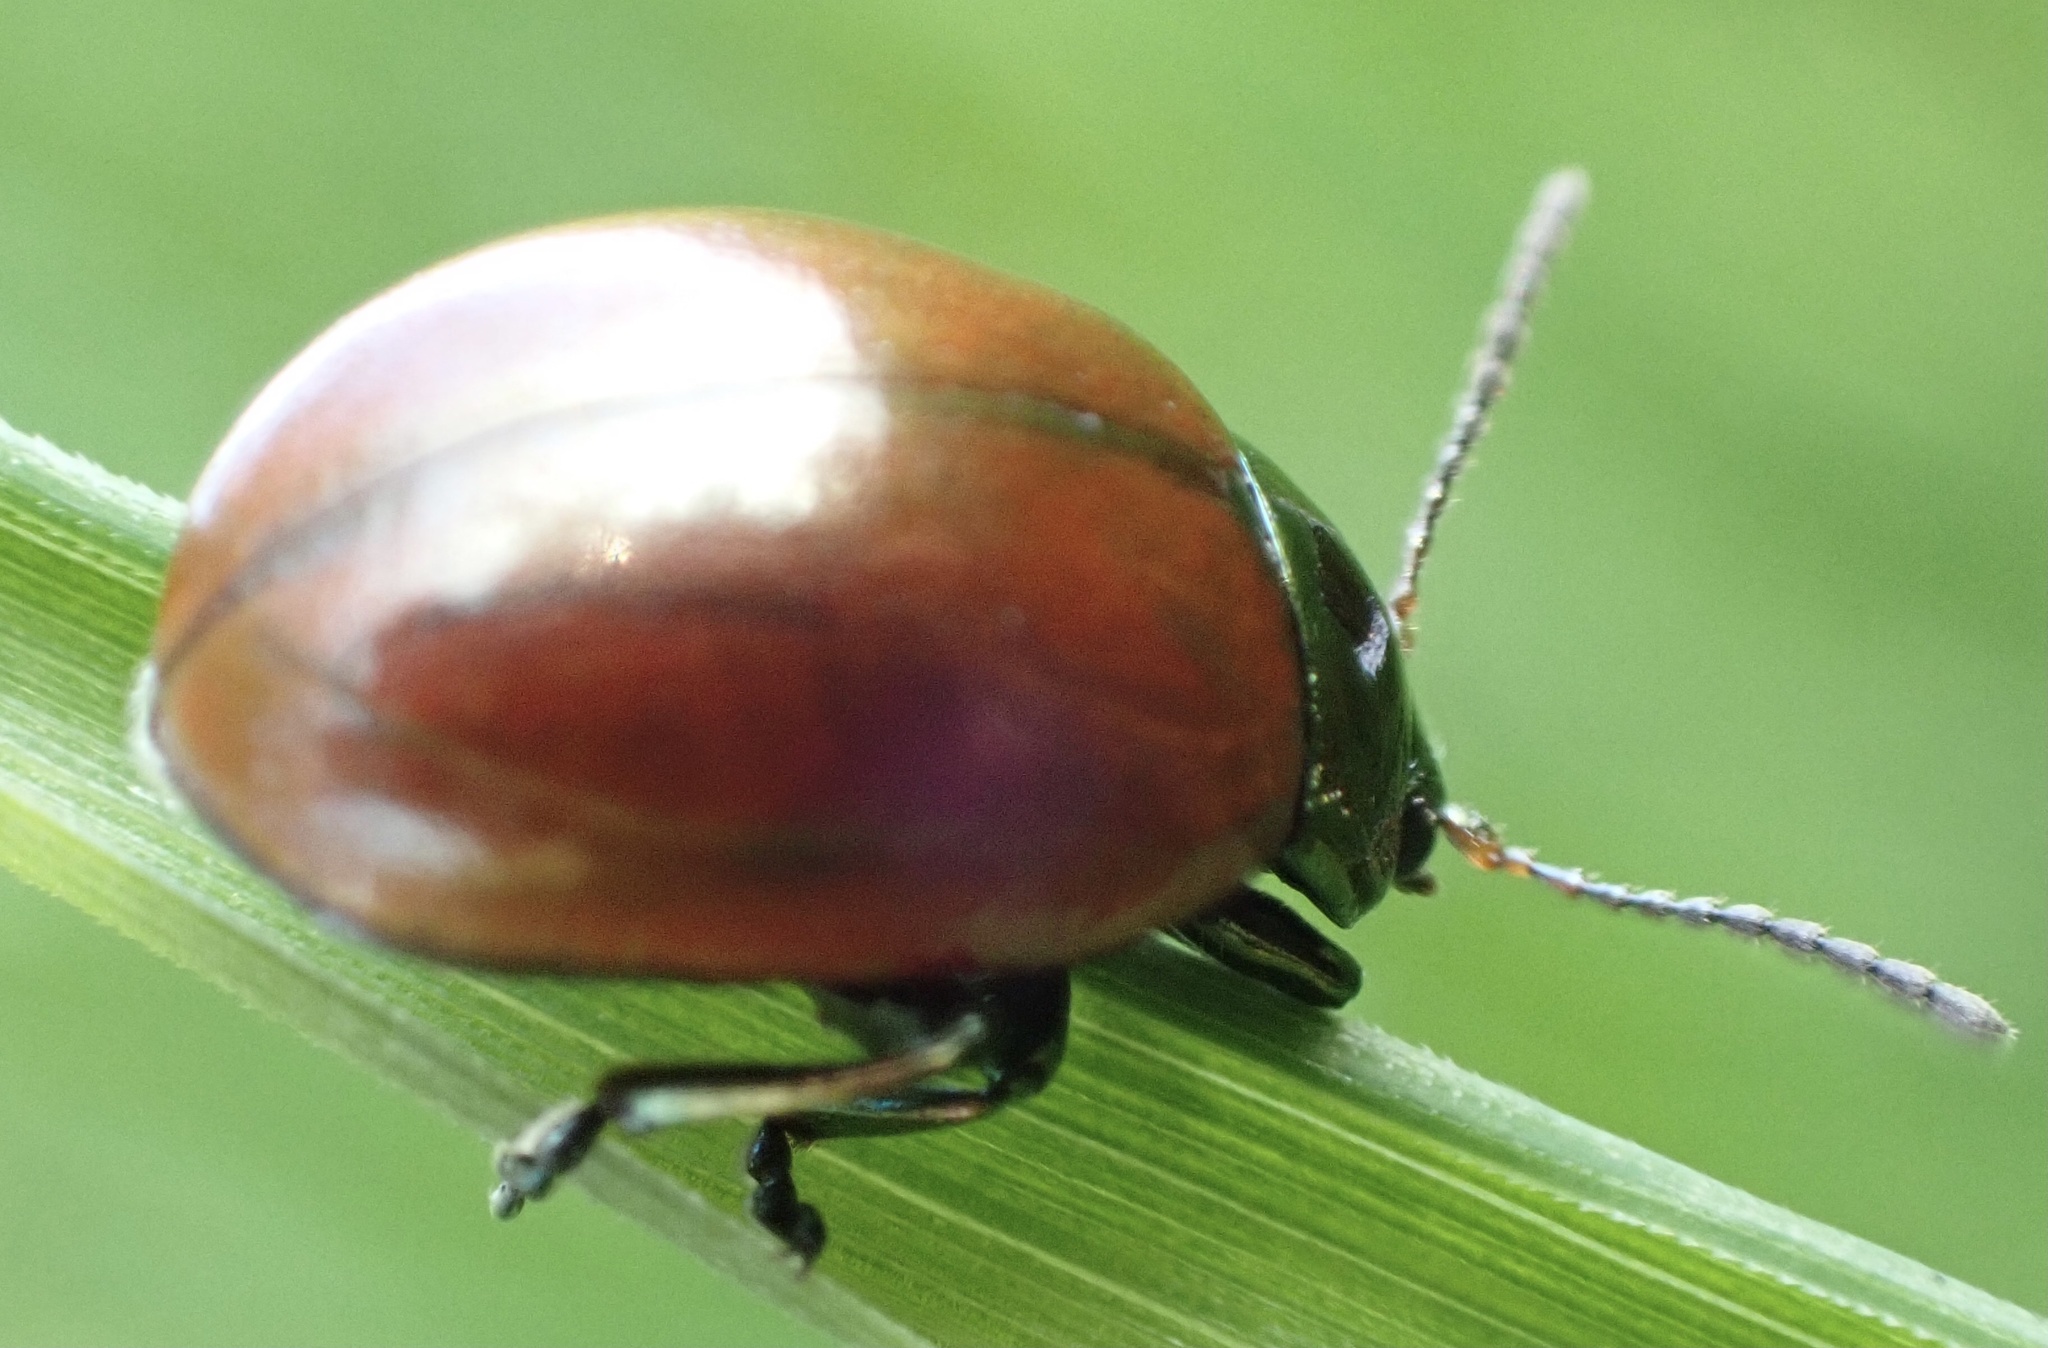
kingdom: Animalia
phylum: Arthropoda
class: Insecta
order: Coleoptera
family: Chrysomelidae
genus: Chrysomela
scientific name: Chrysomela polita
